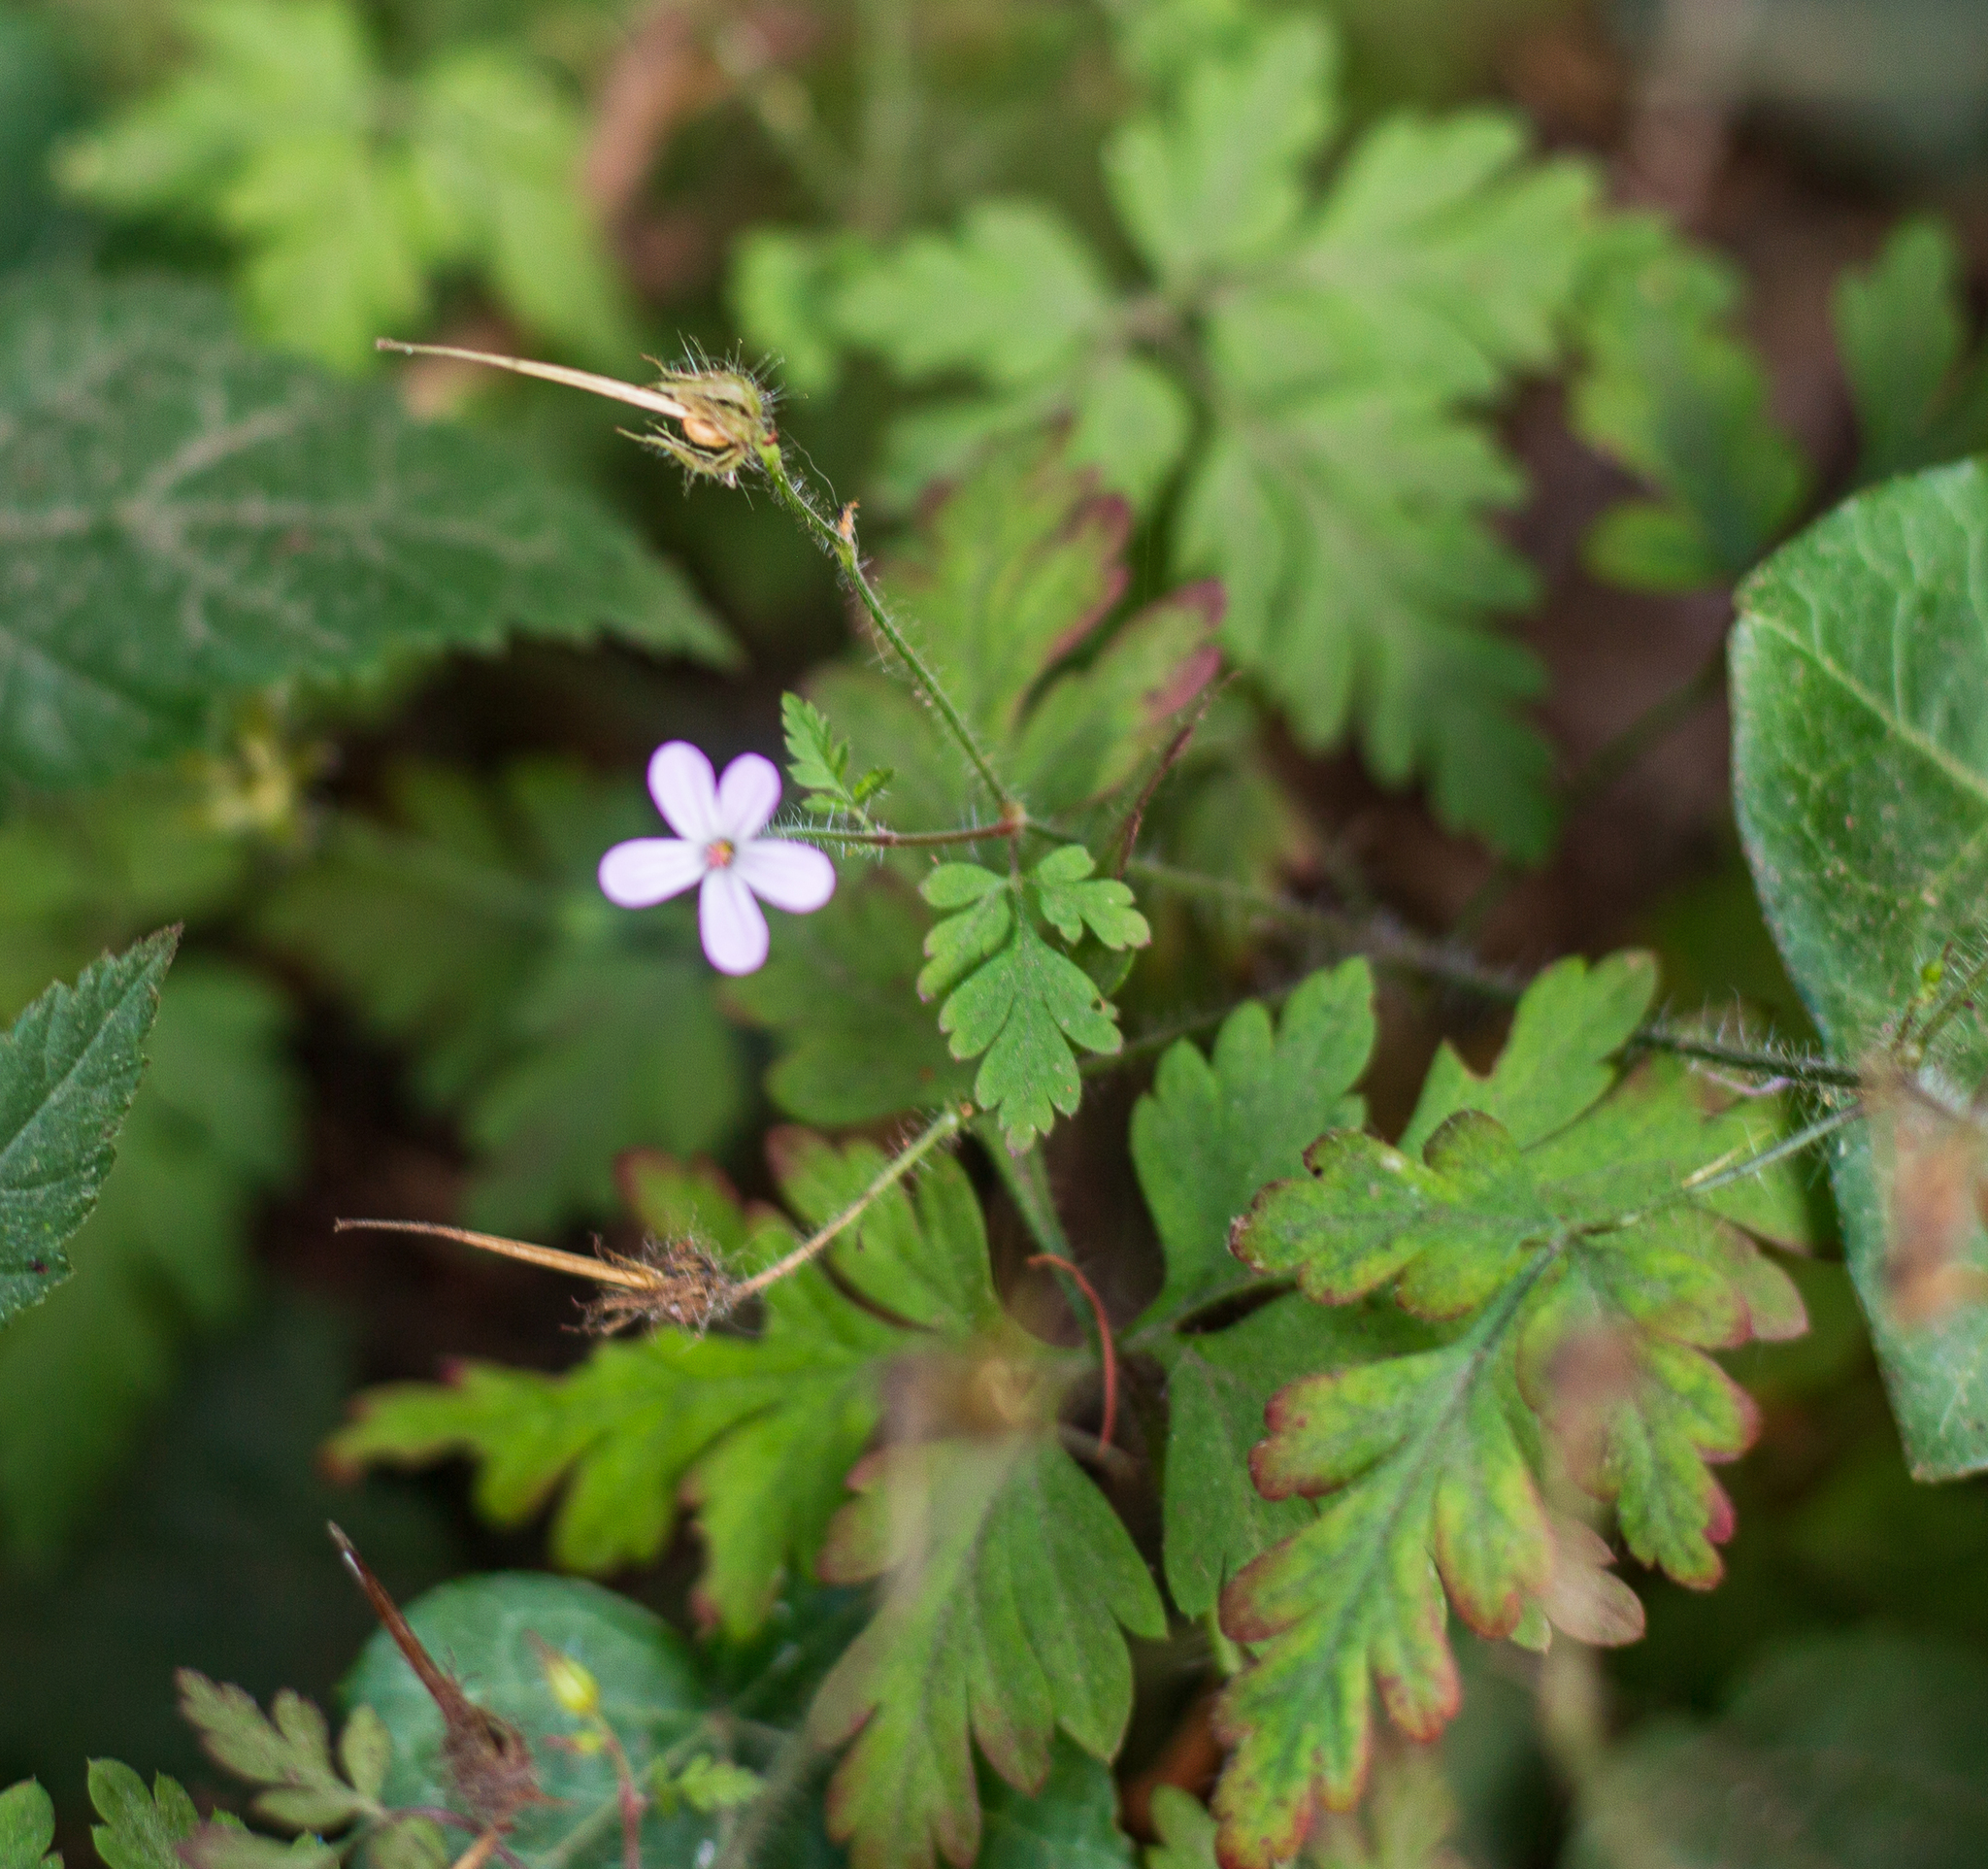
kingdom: Plantae
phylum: Tracheophyta
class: Magnoliopsida
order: Geraniales
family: Geraniaceae
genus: Geranium
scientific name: Geranium robertianum
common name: Herb-robert
